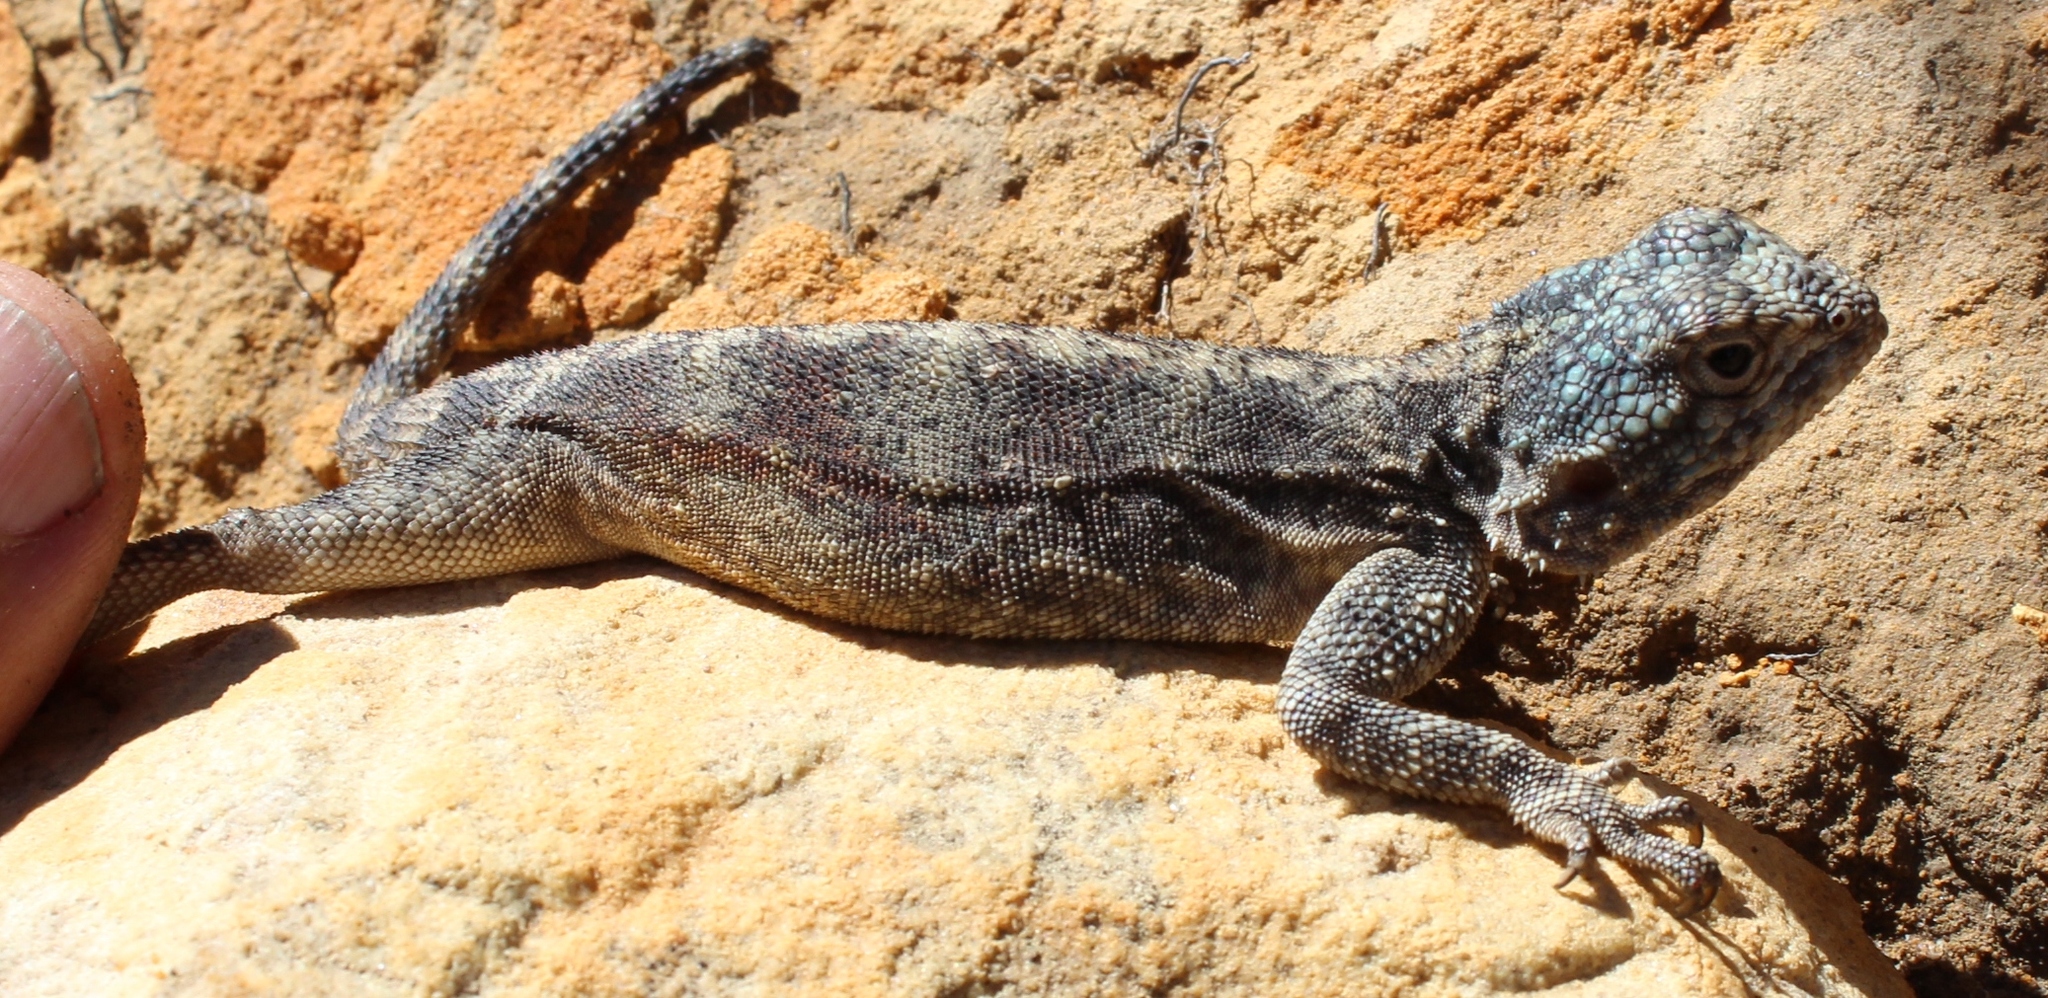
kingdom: Animalia
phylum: Chordata
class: Squamata
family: Agamidae
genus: Agama
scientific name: Agama atra
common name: Southern african rock agama
